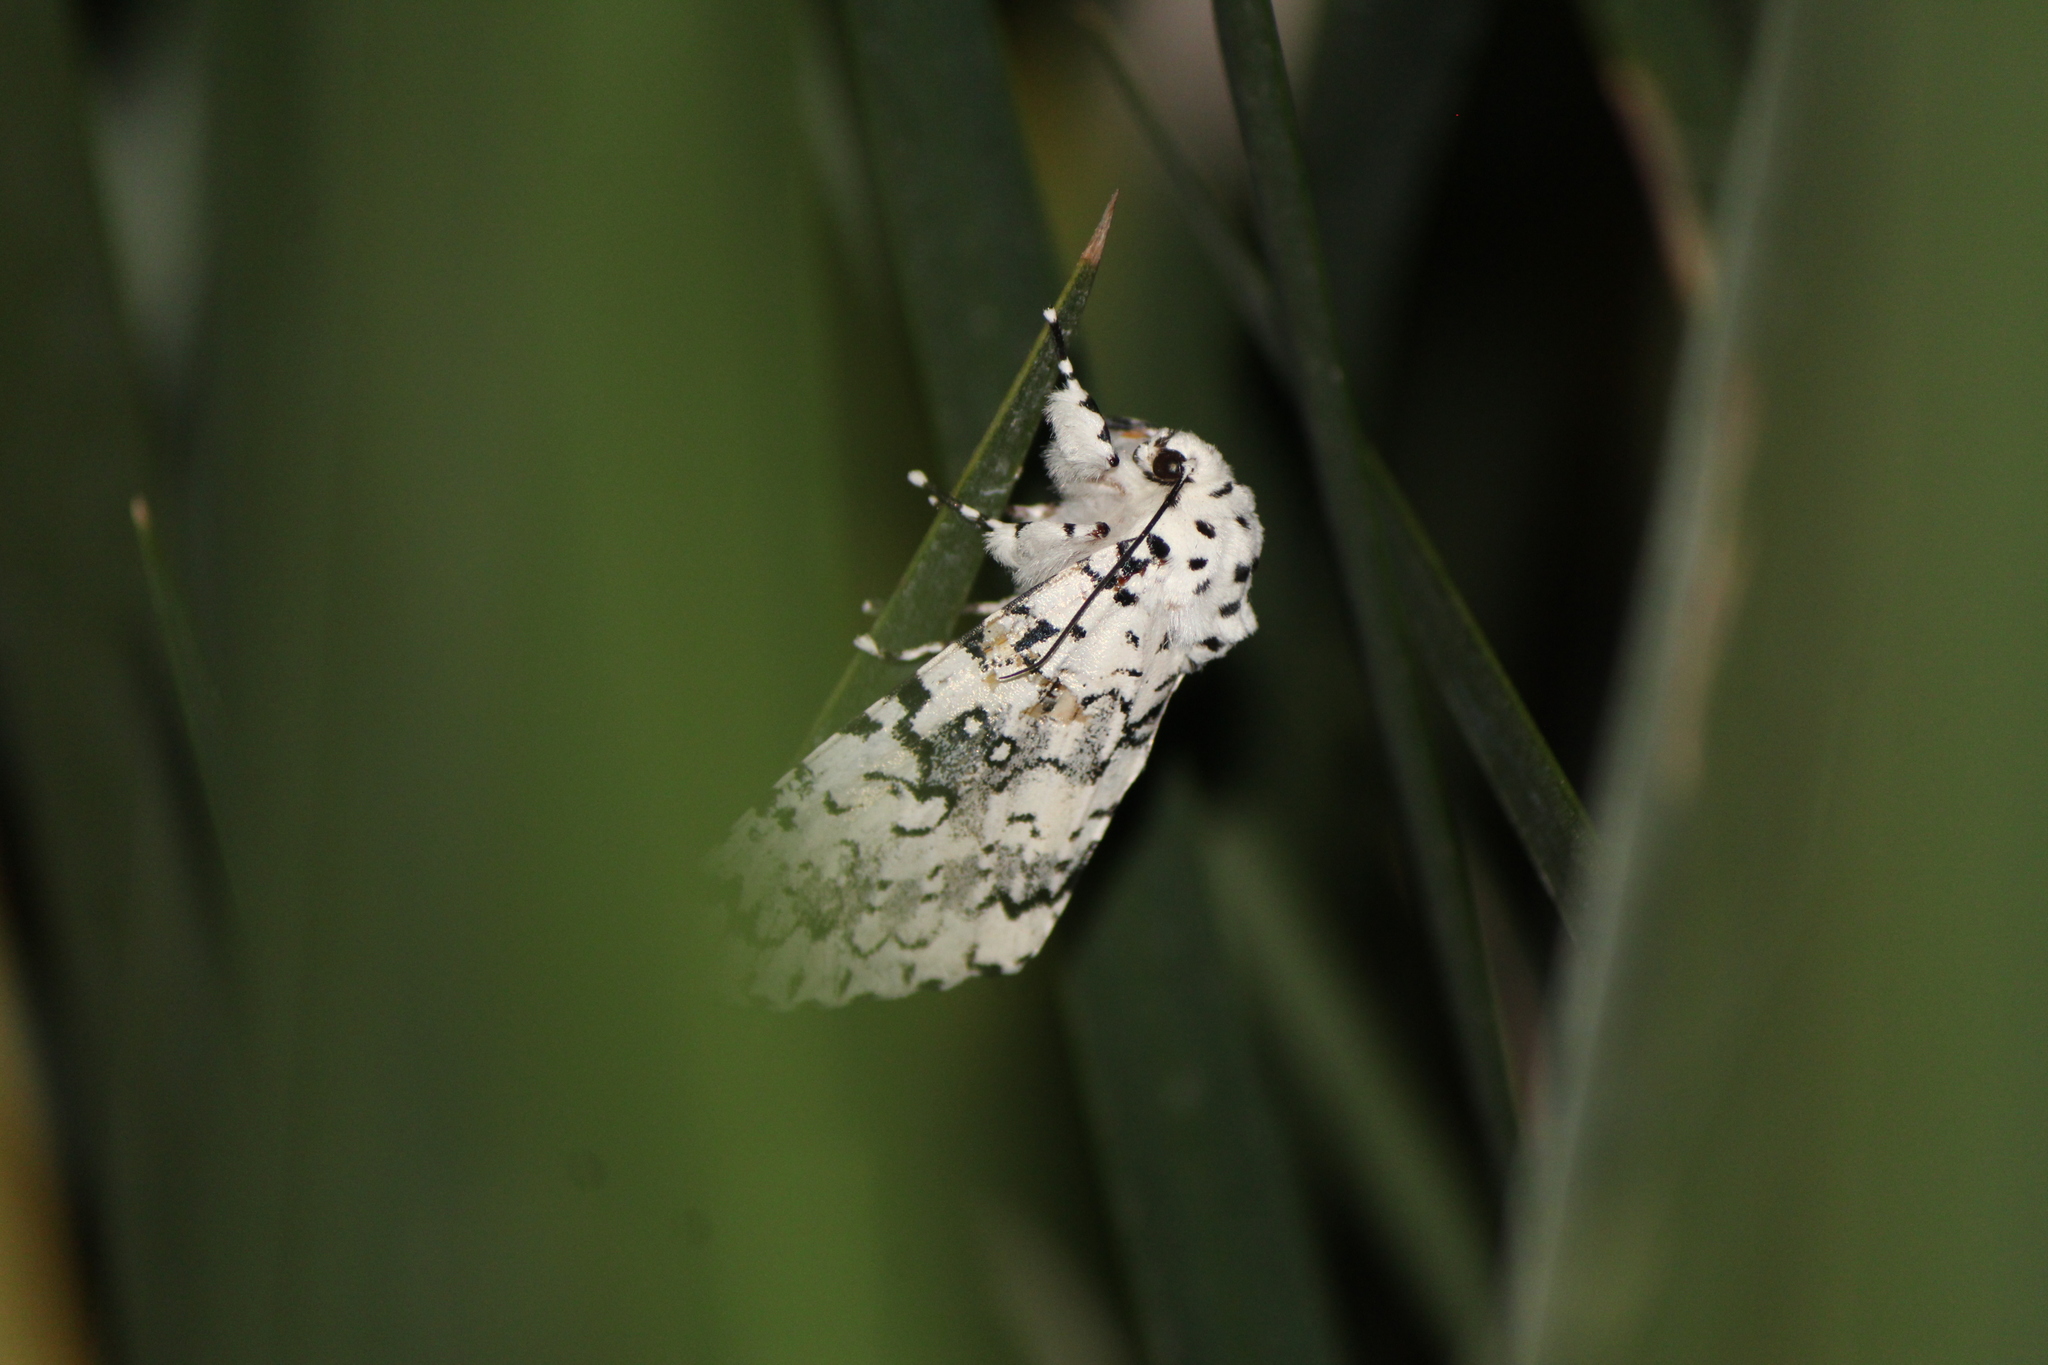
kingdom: Animalia
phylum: Arthropoda
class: Insecta
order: Lepidoptera
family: Noctuidae
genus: Lichnoptera
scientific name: Lichnoptera decora
